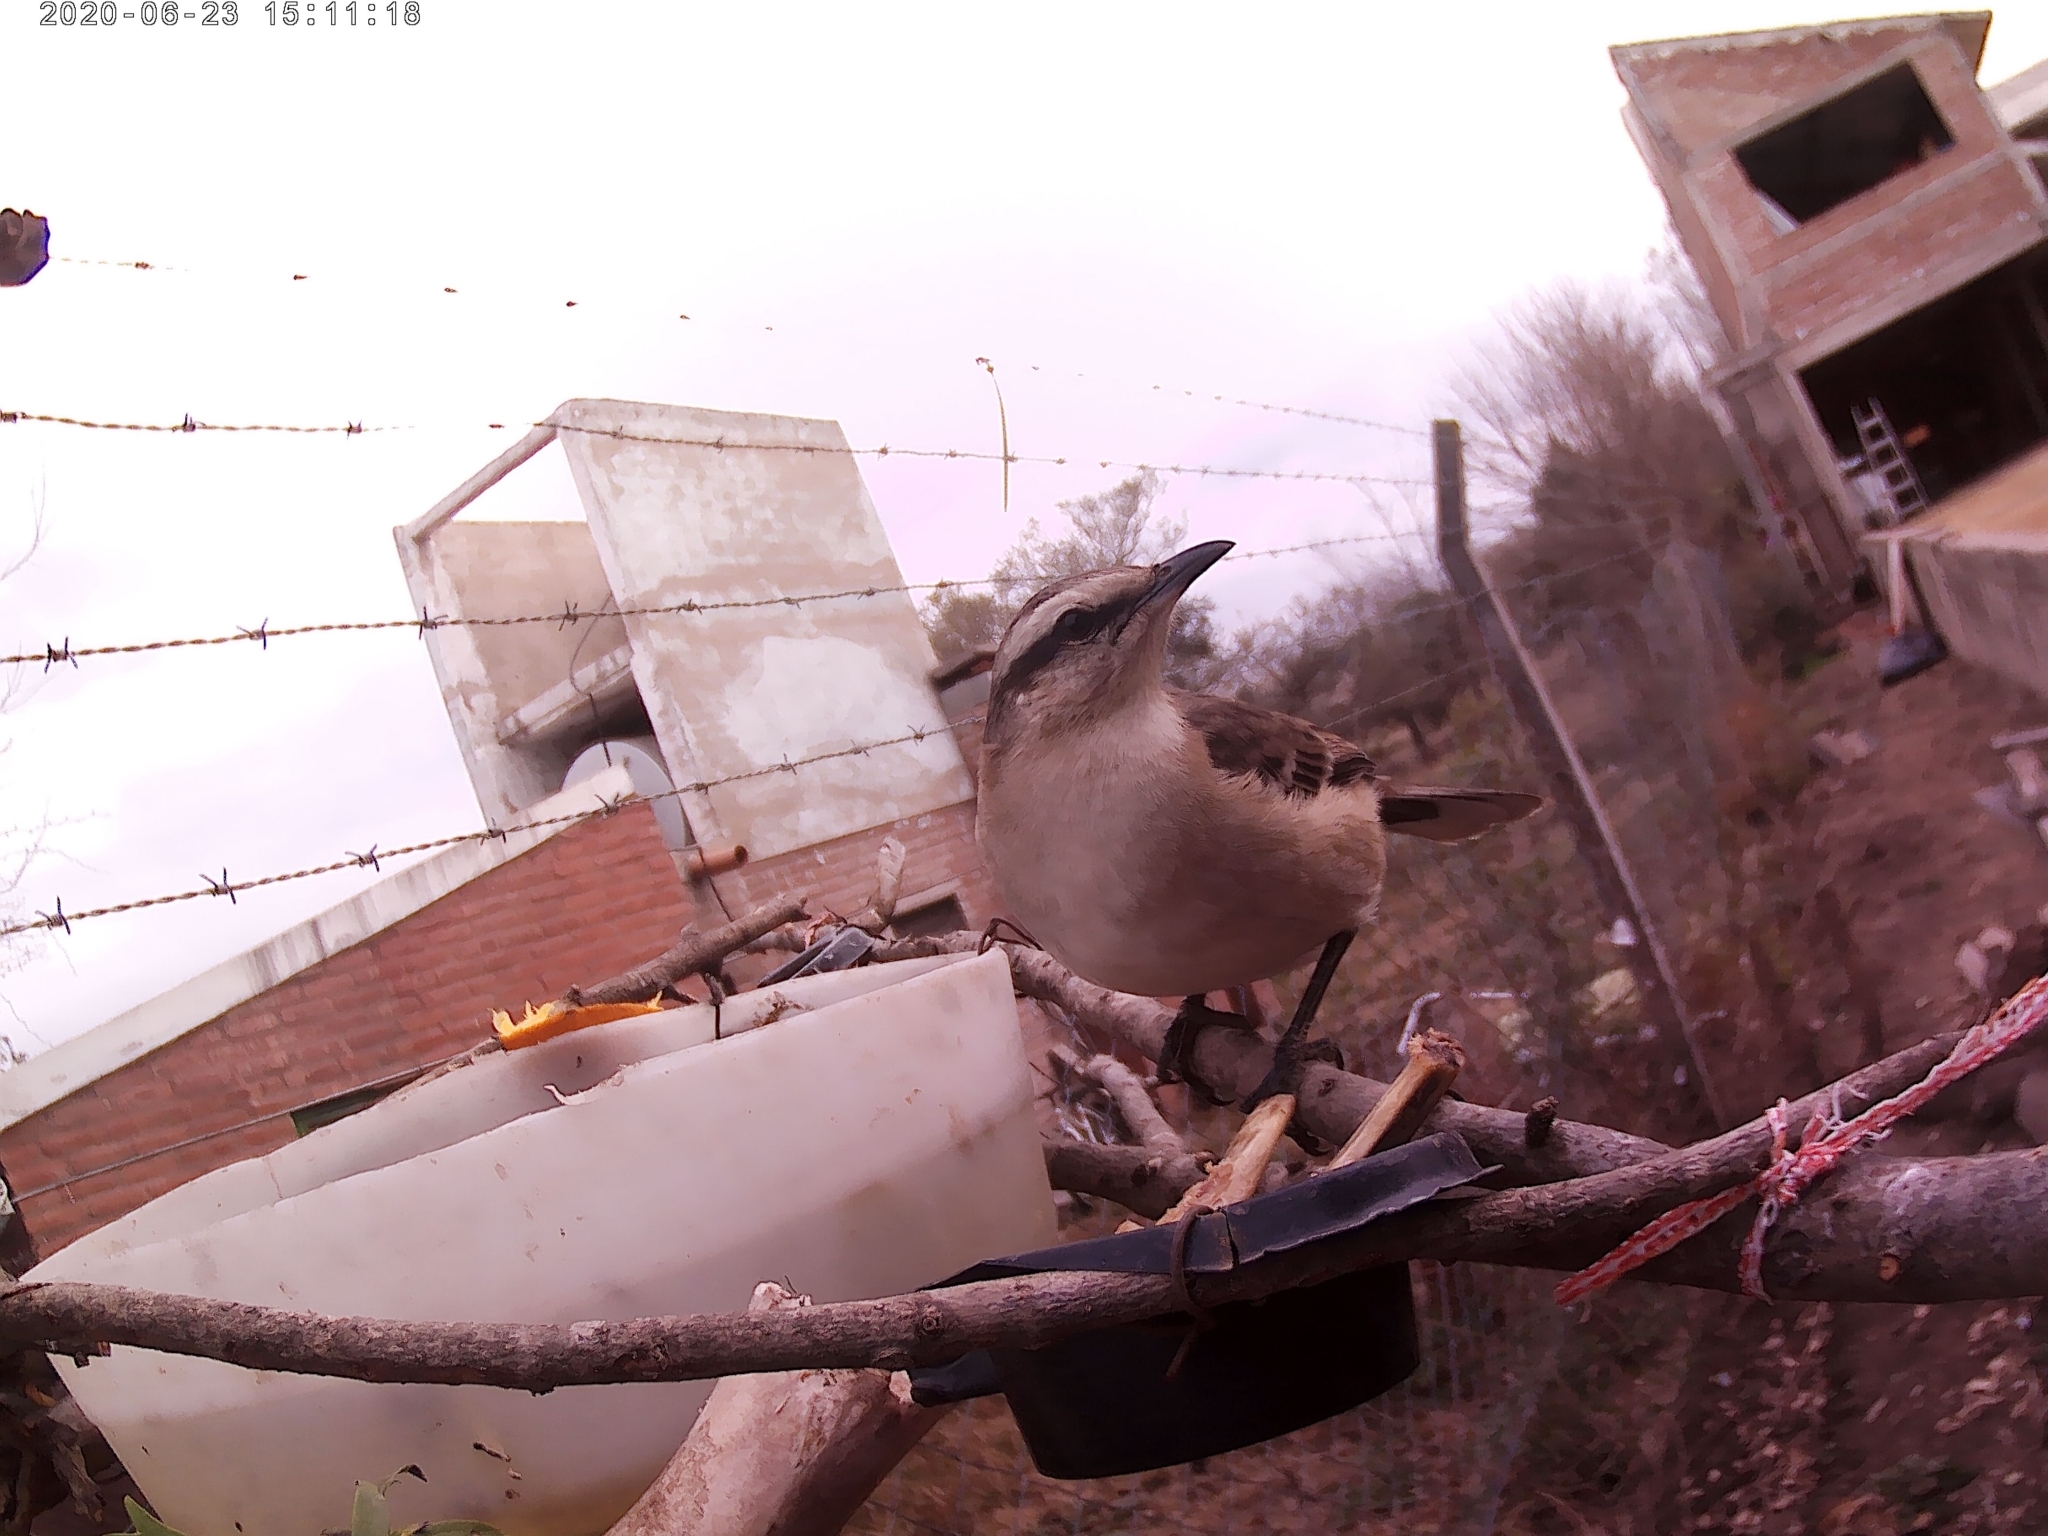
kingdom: Animalia
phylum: Chordata
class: Aves
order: Passeriformes
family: Mimidae
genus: Mimus
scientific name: Mimus saturninus
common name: Chalk-browed mockingbird
